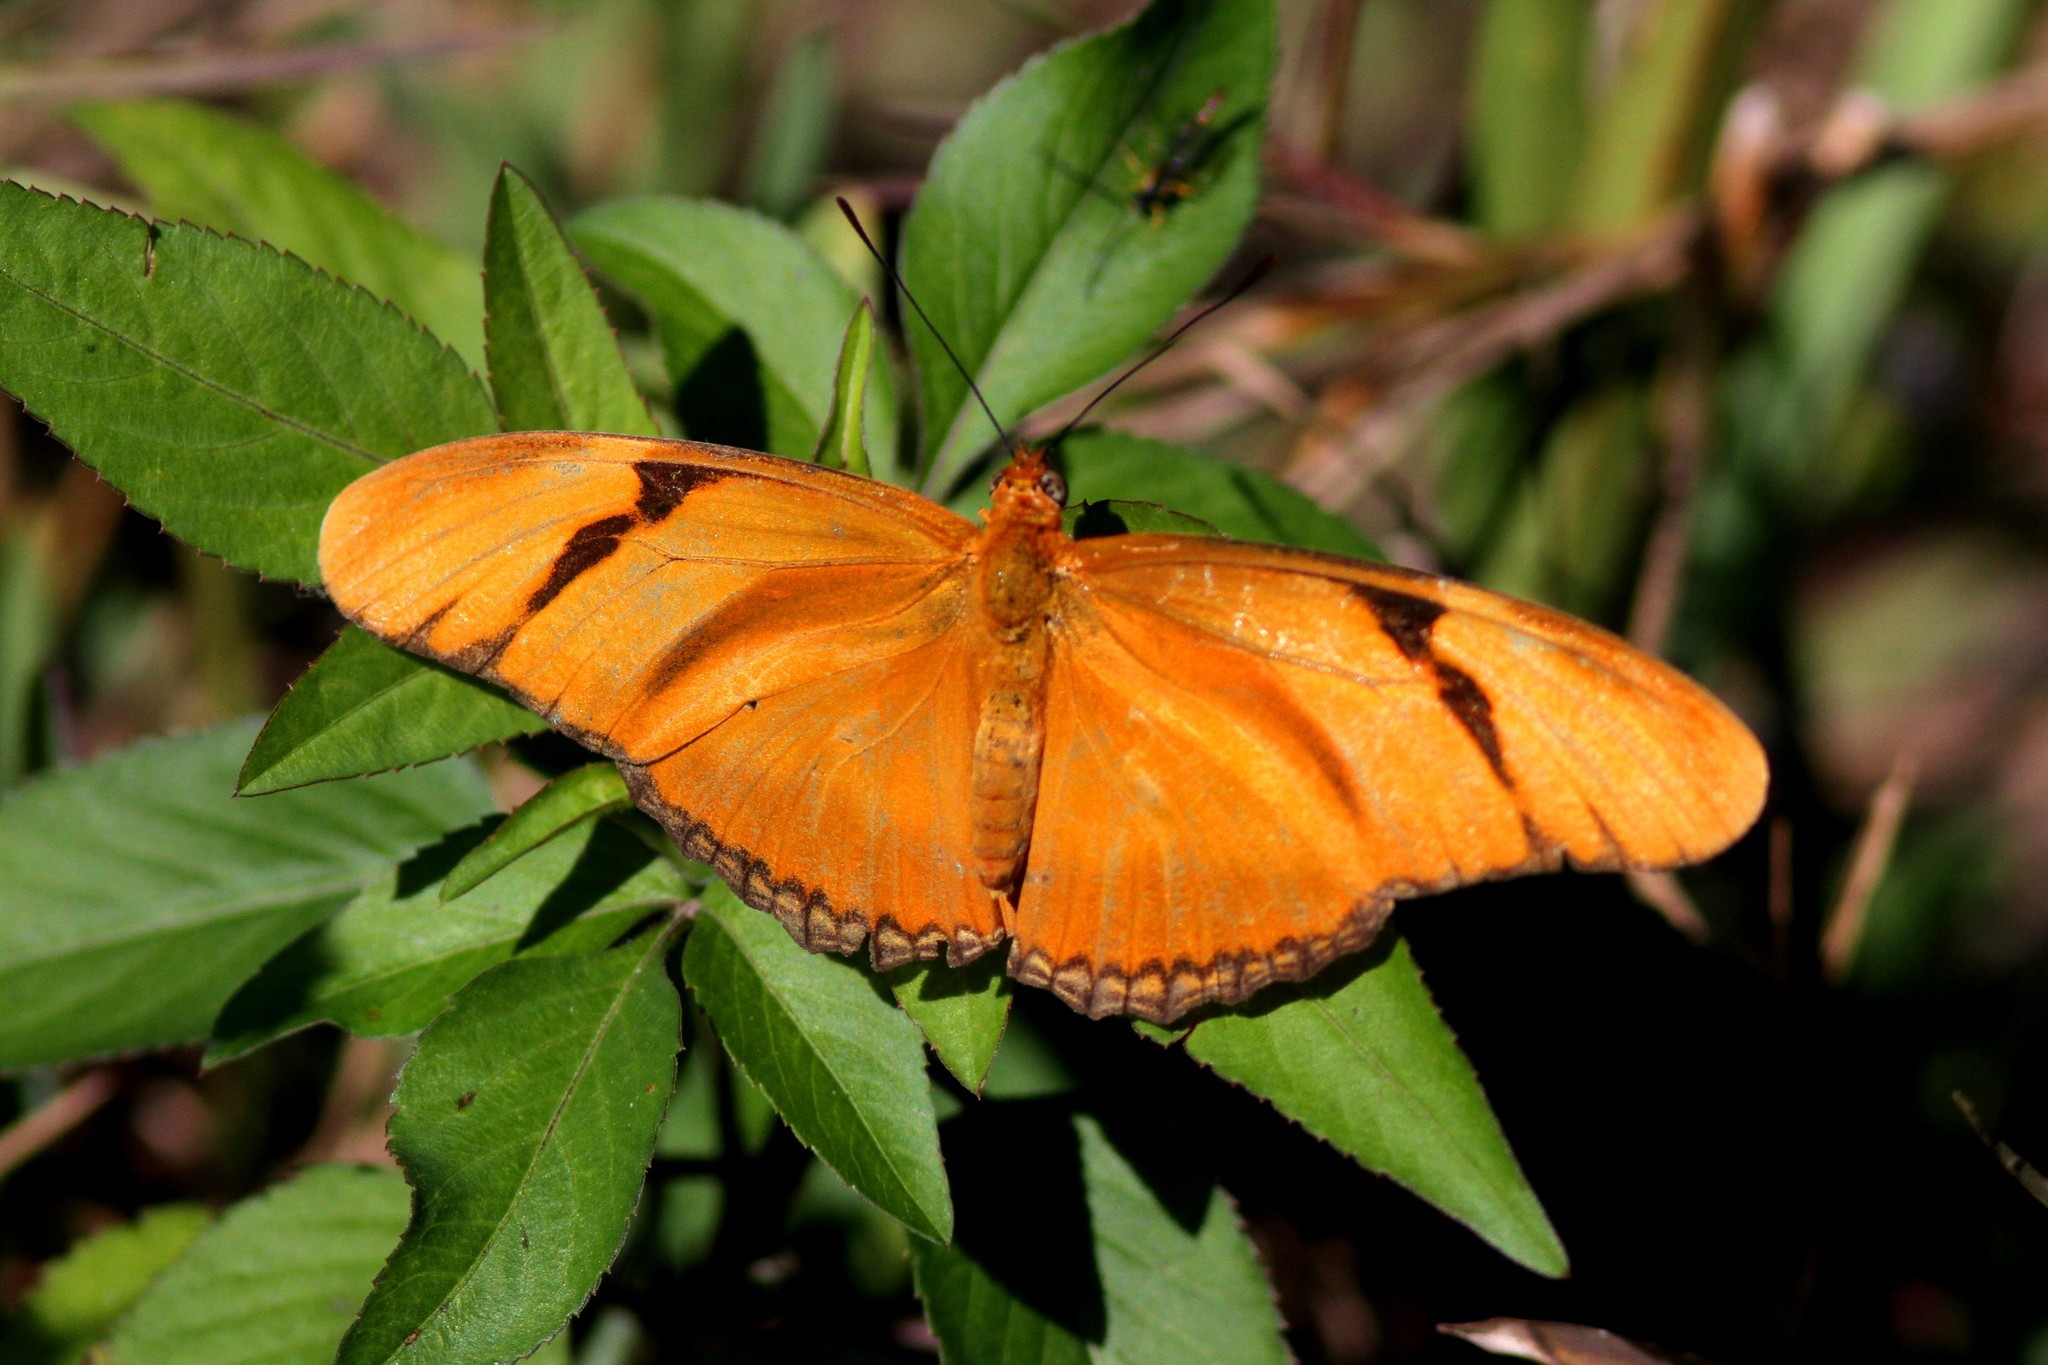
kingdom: Animalia
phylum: Arthropoda
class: Insecta
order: Lepidoptera
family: Nymphalidae
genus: Dryas
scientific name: Dryas iulia
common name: Flambeau
